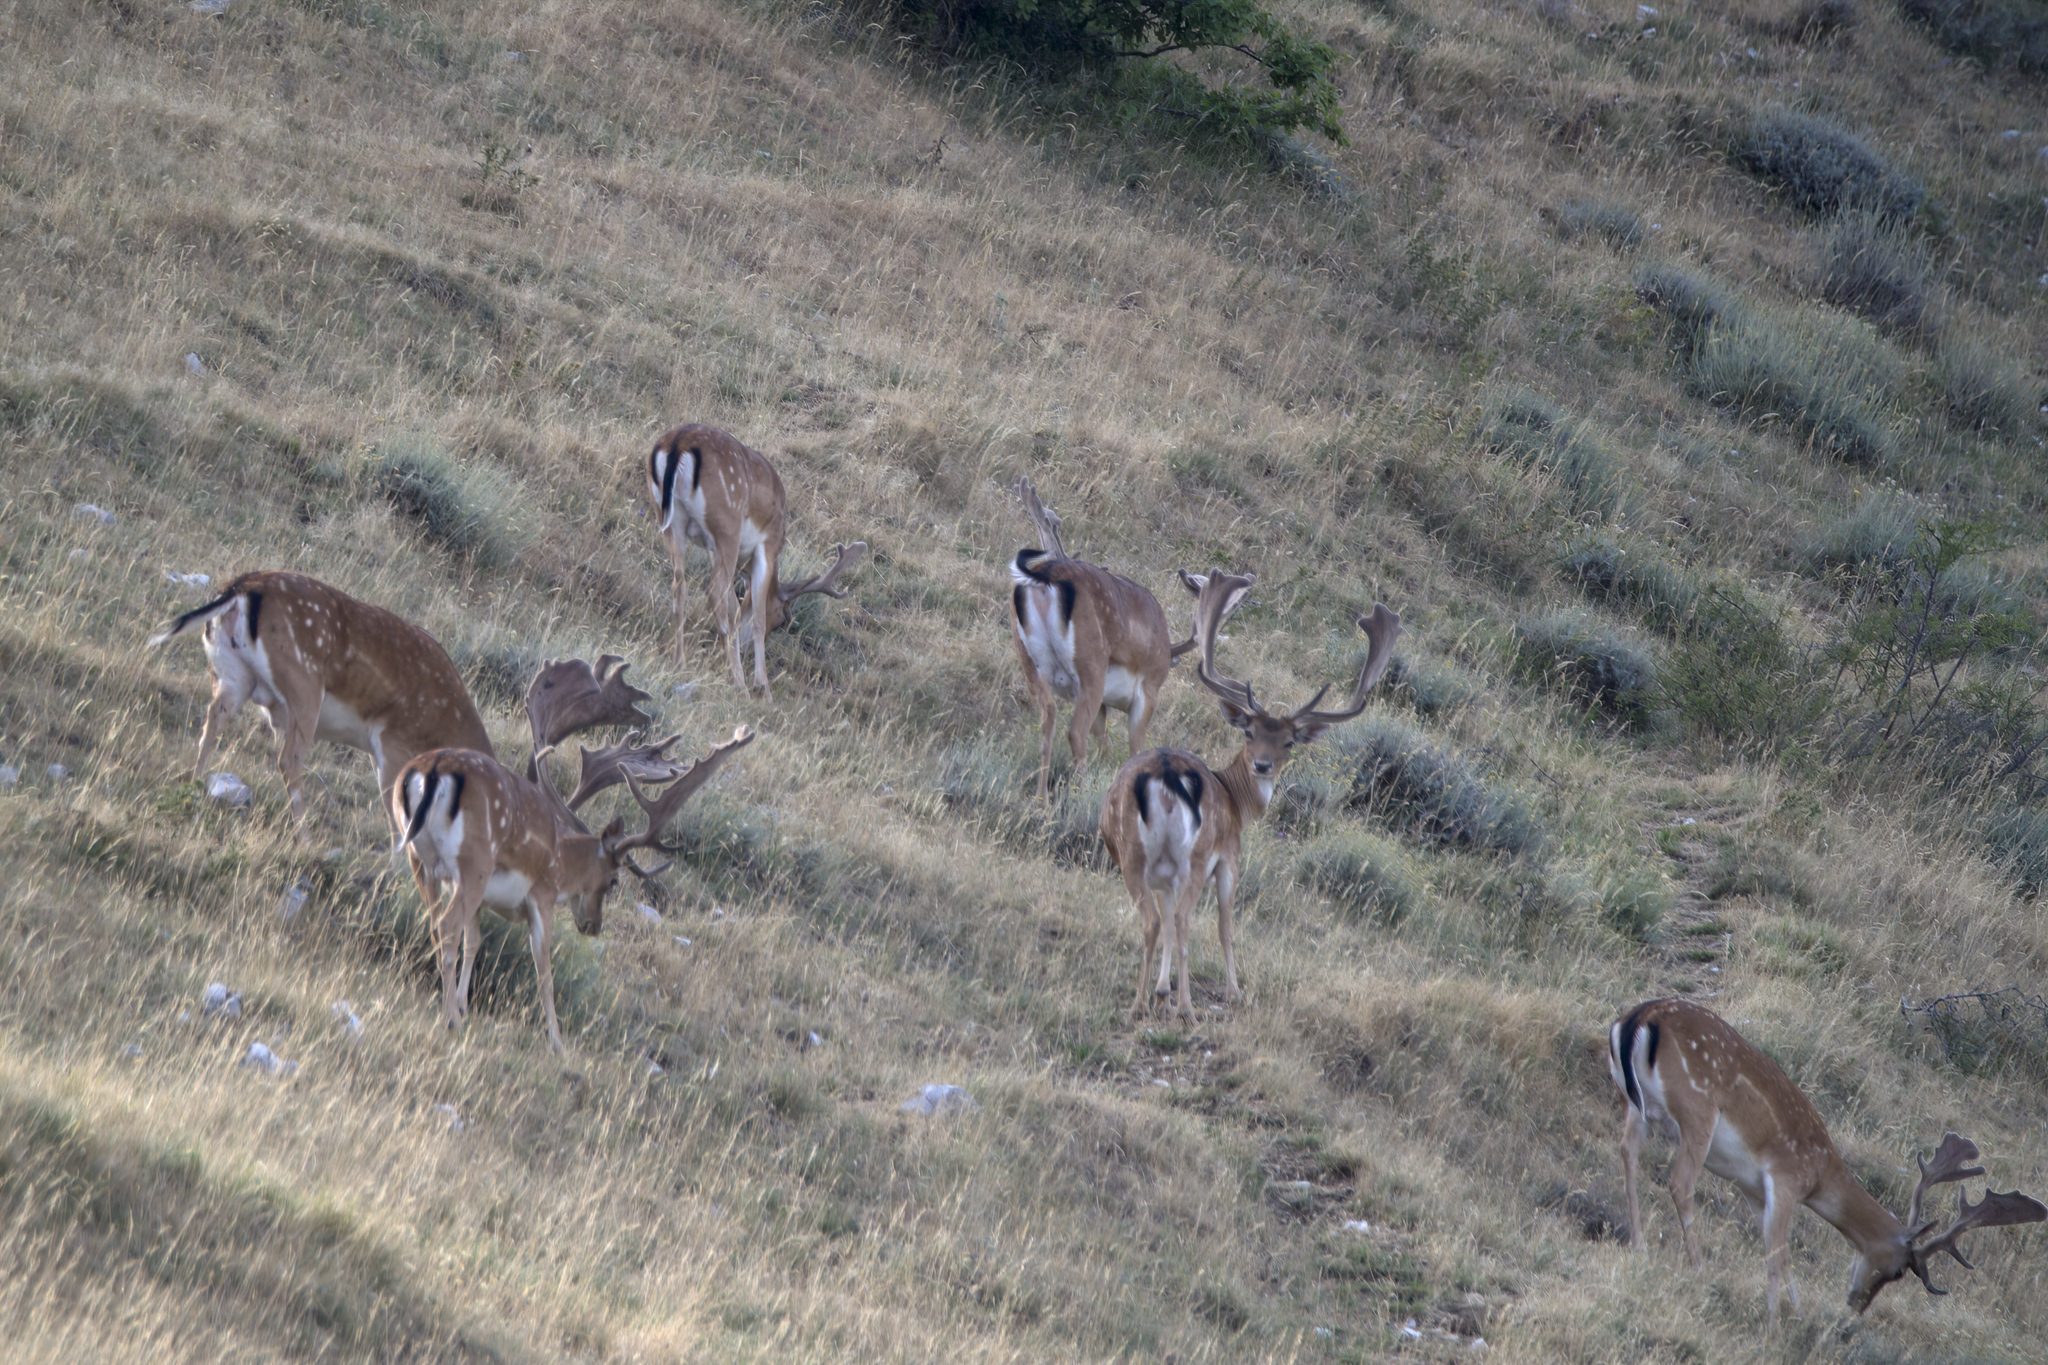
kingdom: Animalia
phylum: Chordata
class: Mammalia
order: Artiodactyla
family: Cervidae
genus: Dama
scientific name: Dama dama
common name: Fallow deer
